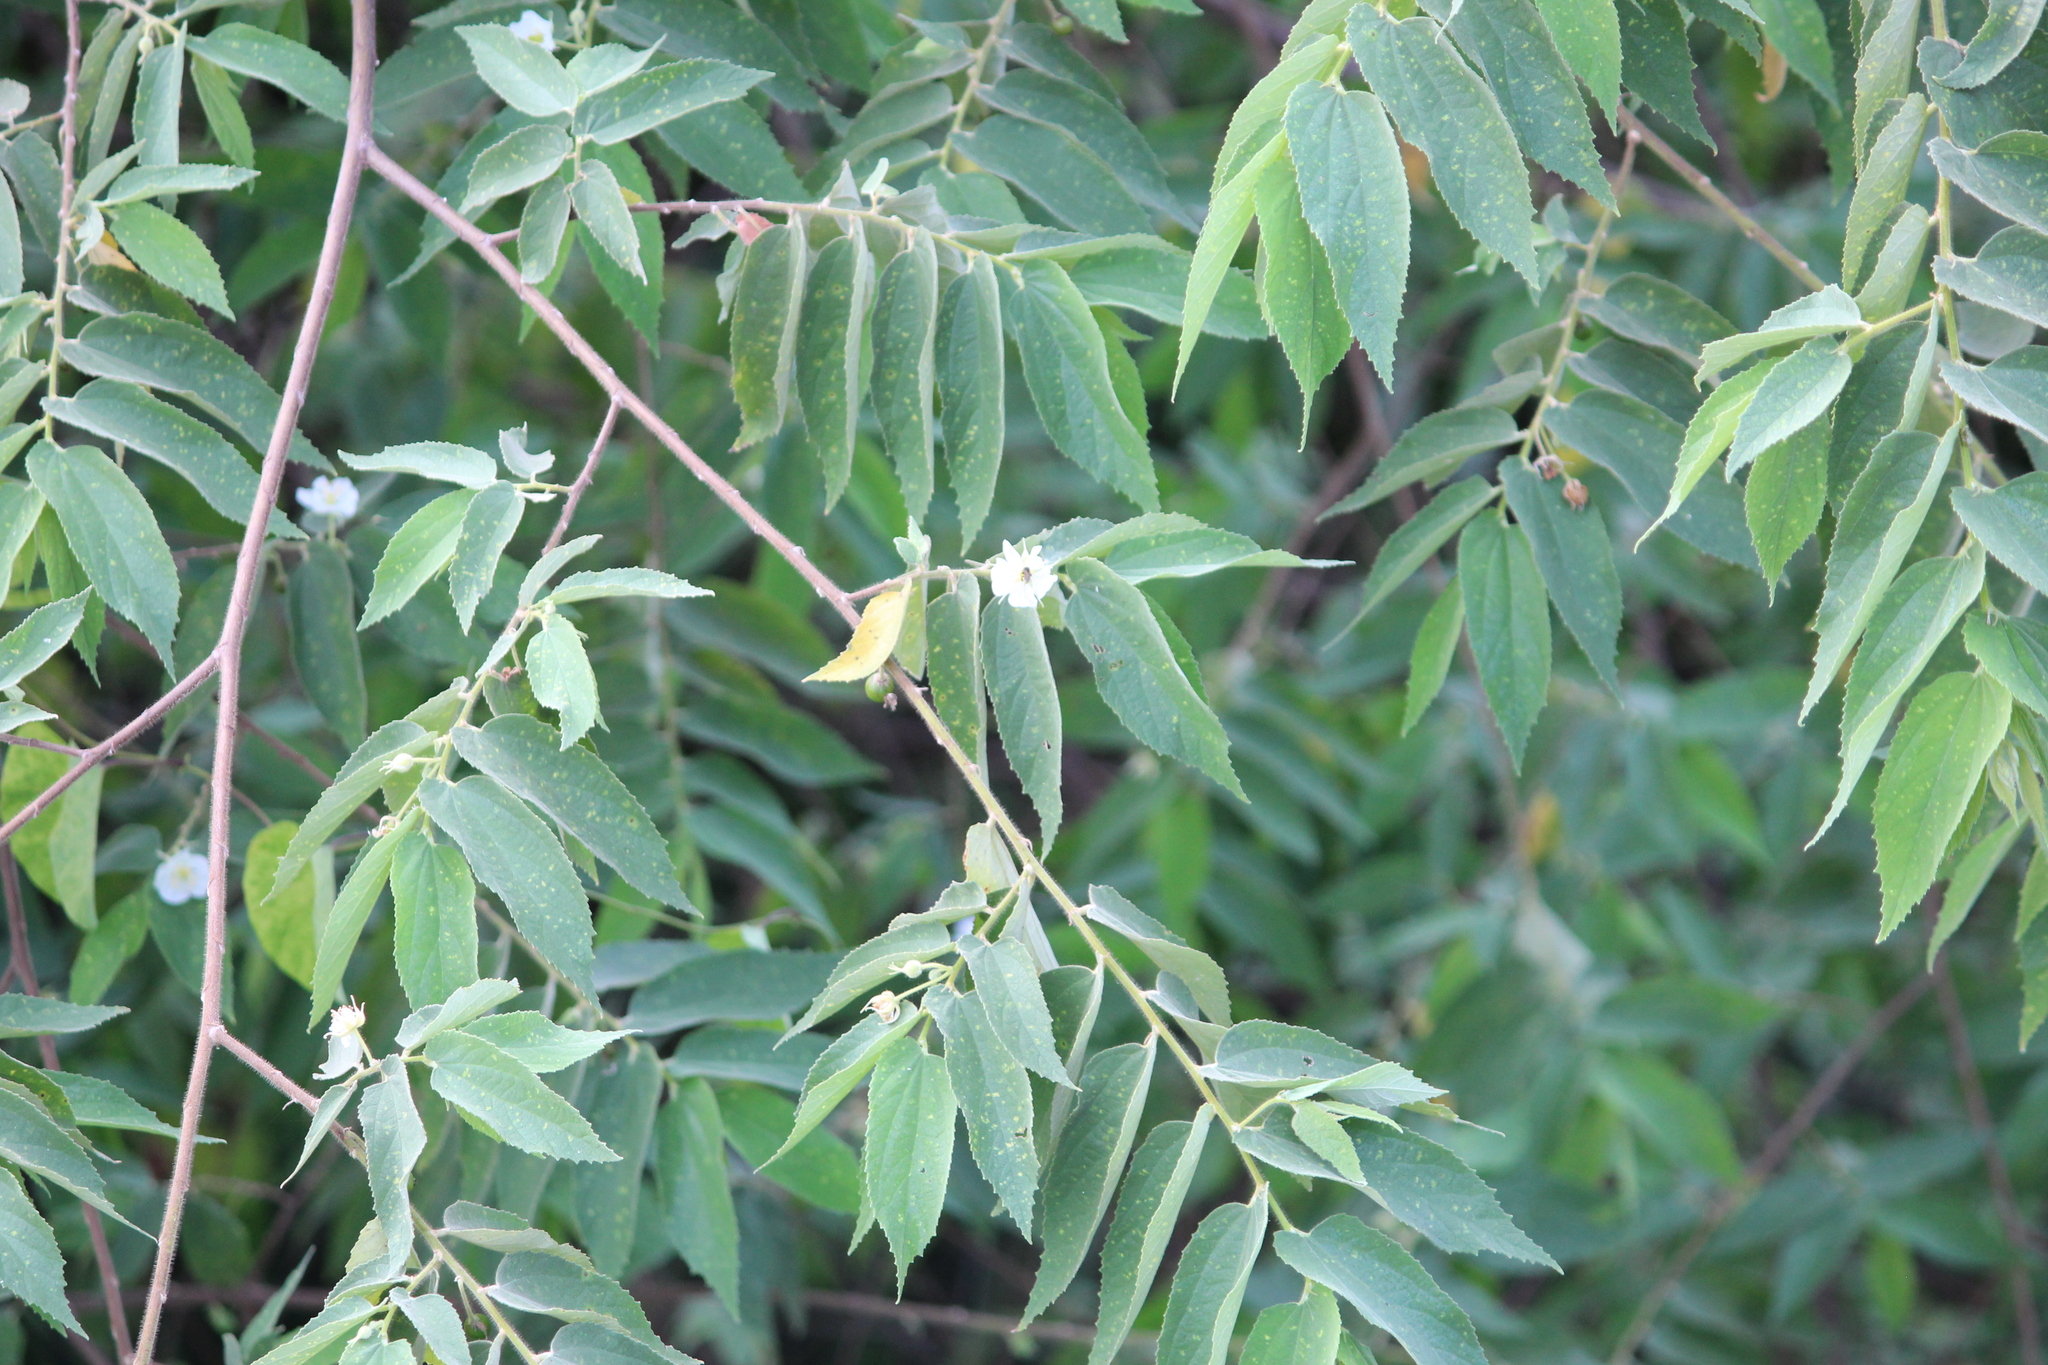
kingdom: Plantae
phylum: Tracheophyta
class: Magnoliopsida
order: Malvales
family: Muntingiaceae
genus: Muntingia
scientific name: Muntingia calabura
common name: Strawberrytree
